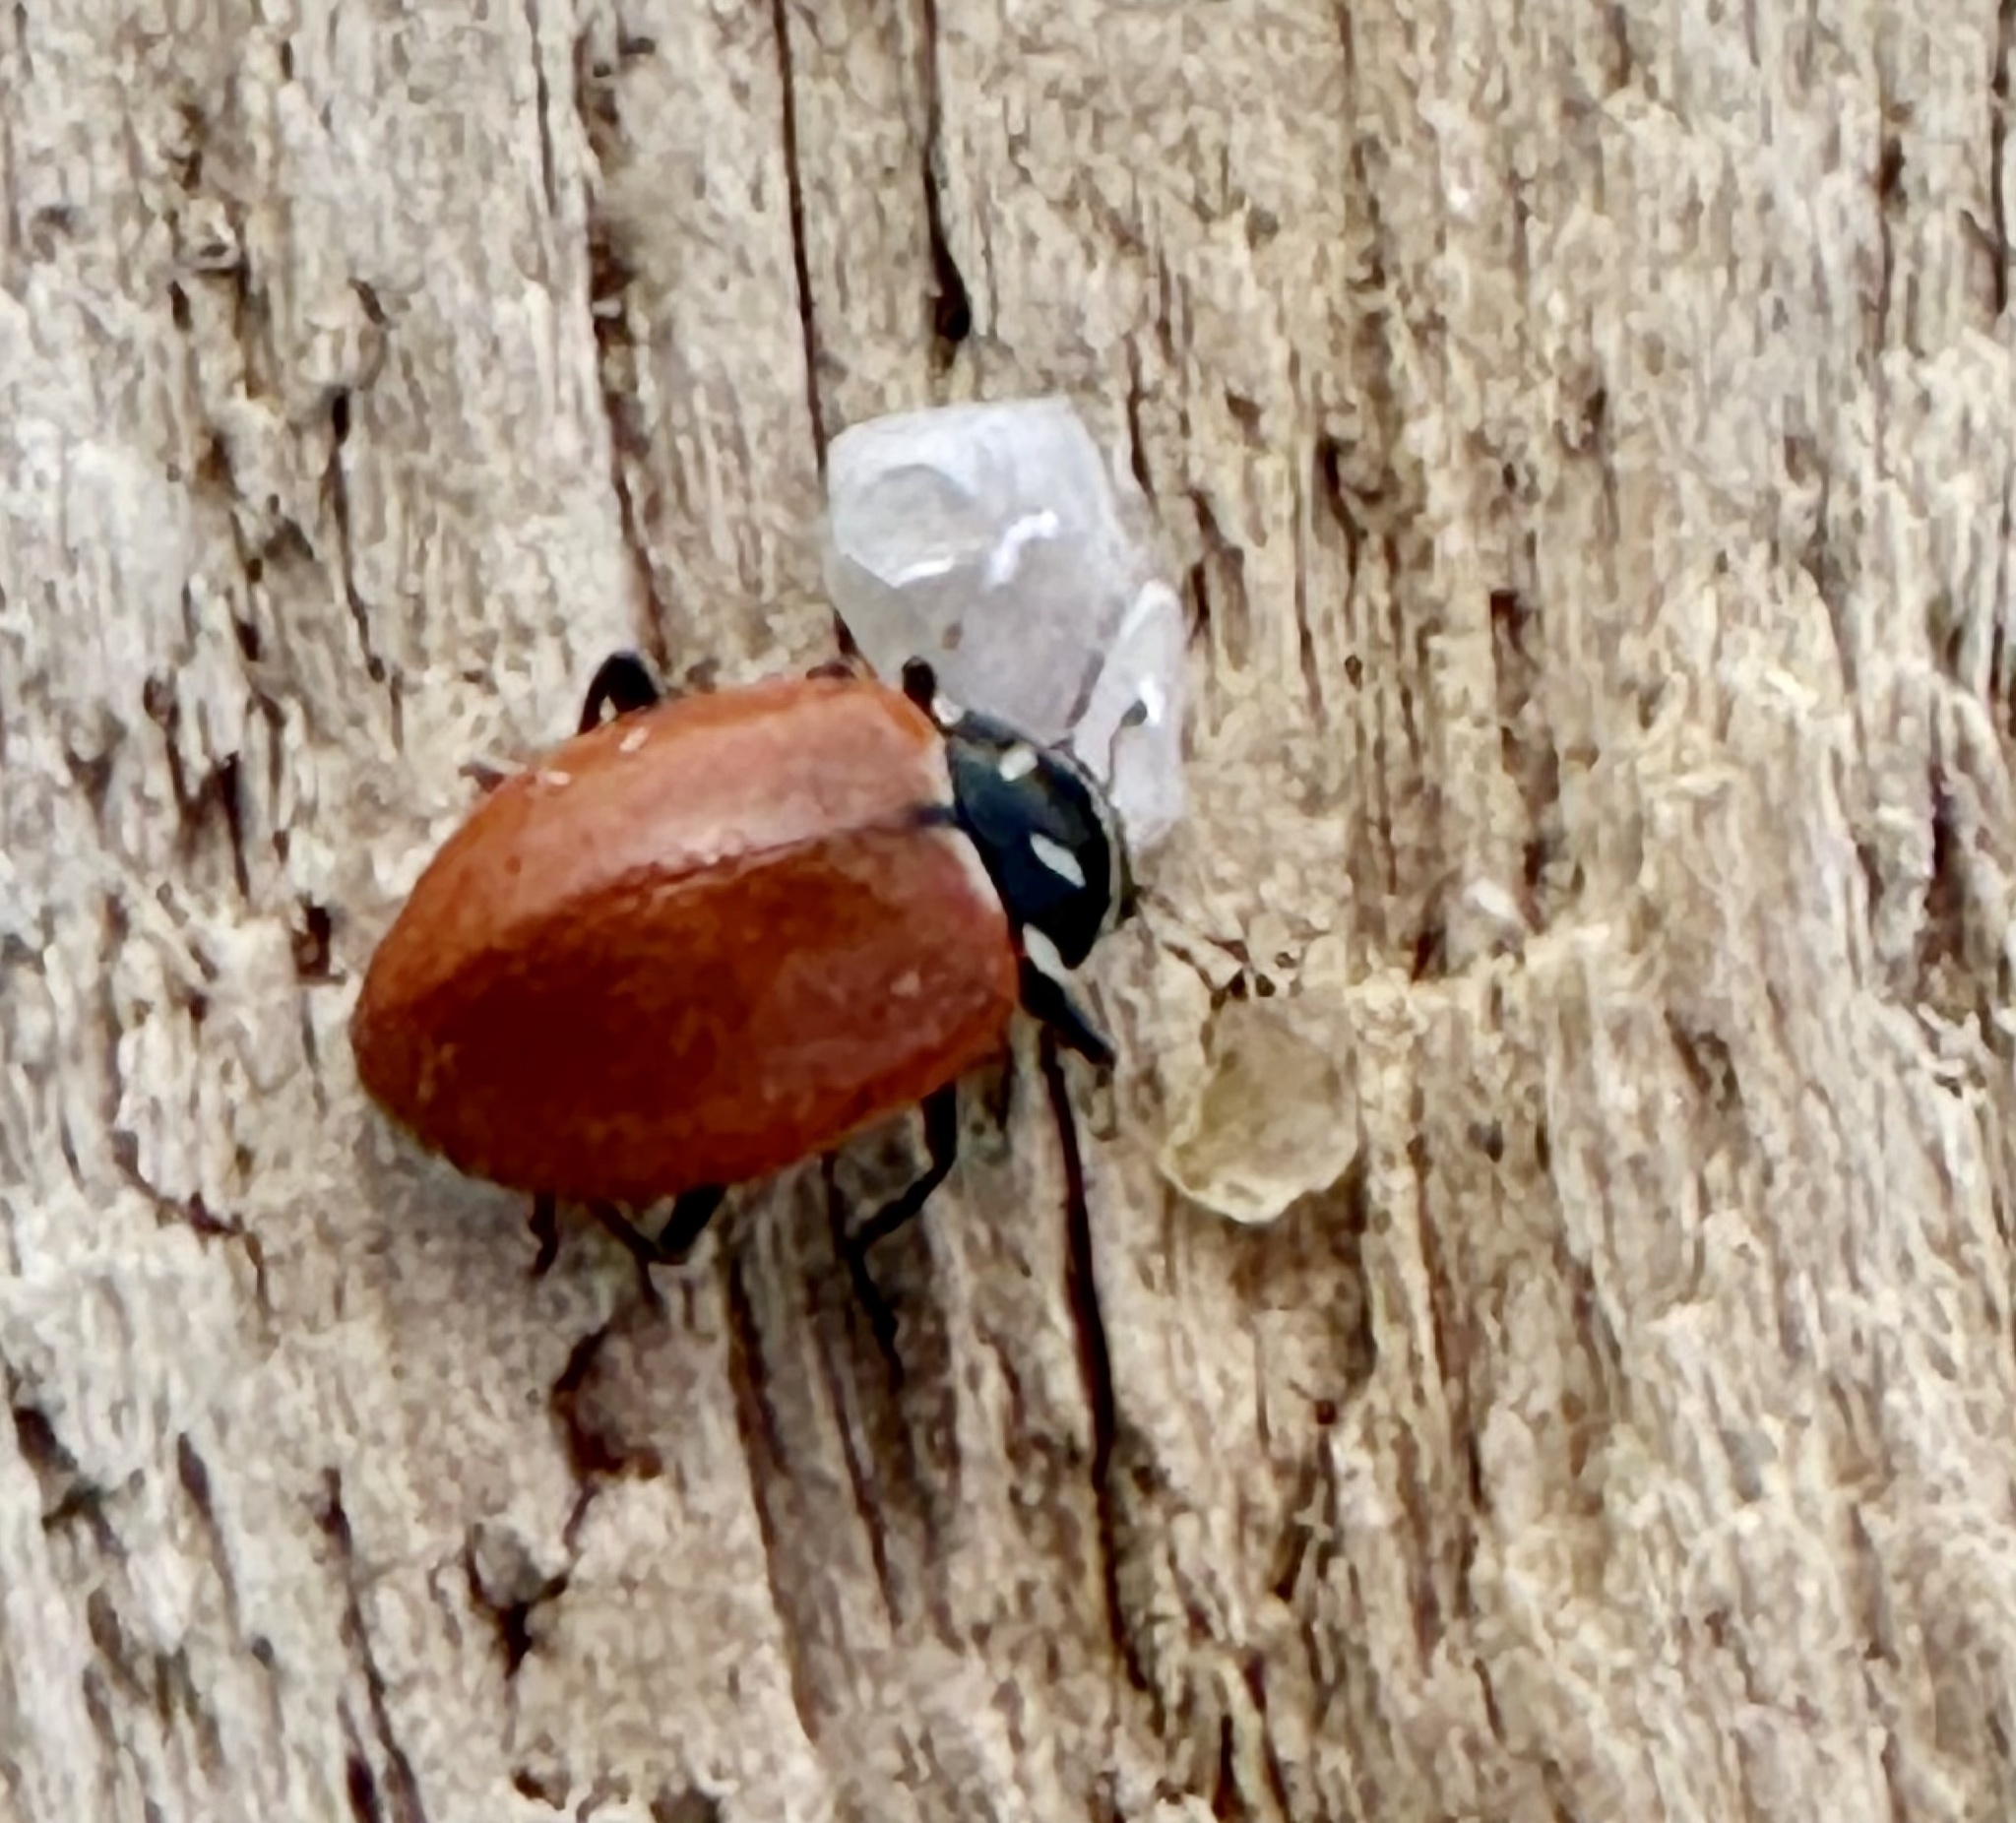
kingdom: Animalia
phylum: Arthropoda
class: Insecta
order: Coleoptera
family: Coccinellidae
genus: Hippodamia
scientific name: Hippodamia convergens
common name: Convergent lady beetle
